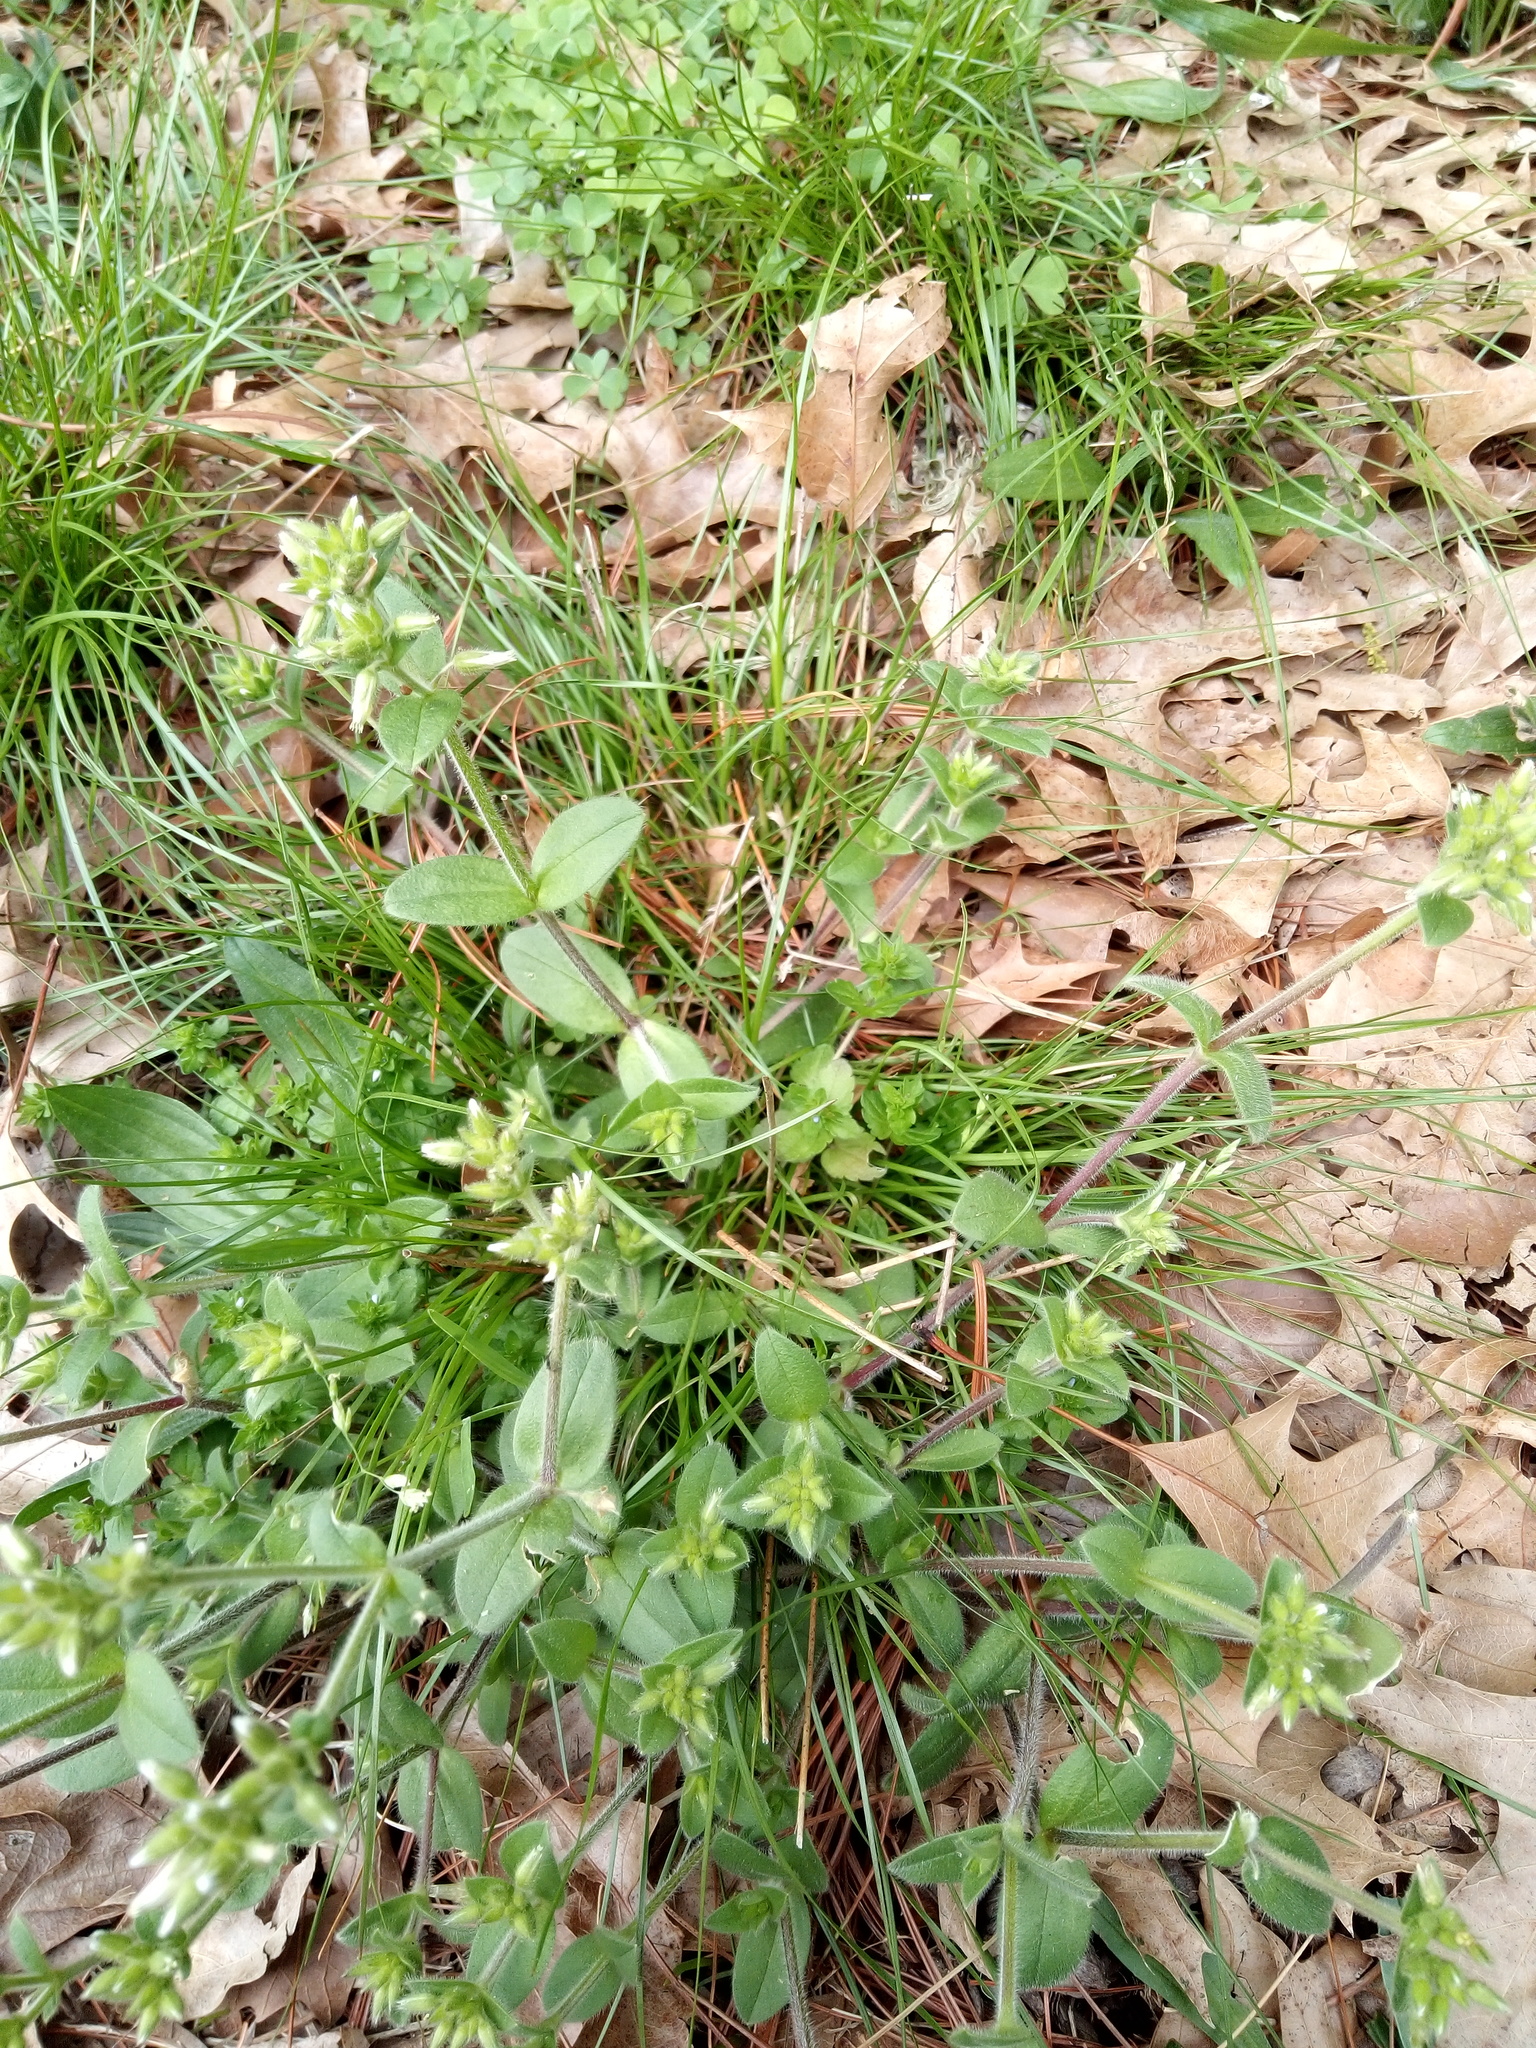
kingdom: Plantae
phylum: Tracheophyta
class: Magnoliopsida
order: Caryophyllales
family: Caryophyllaceae
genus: Cerastium
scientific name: Cerastium glomeratum
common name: Sticky chickweed
